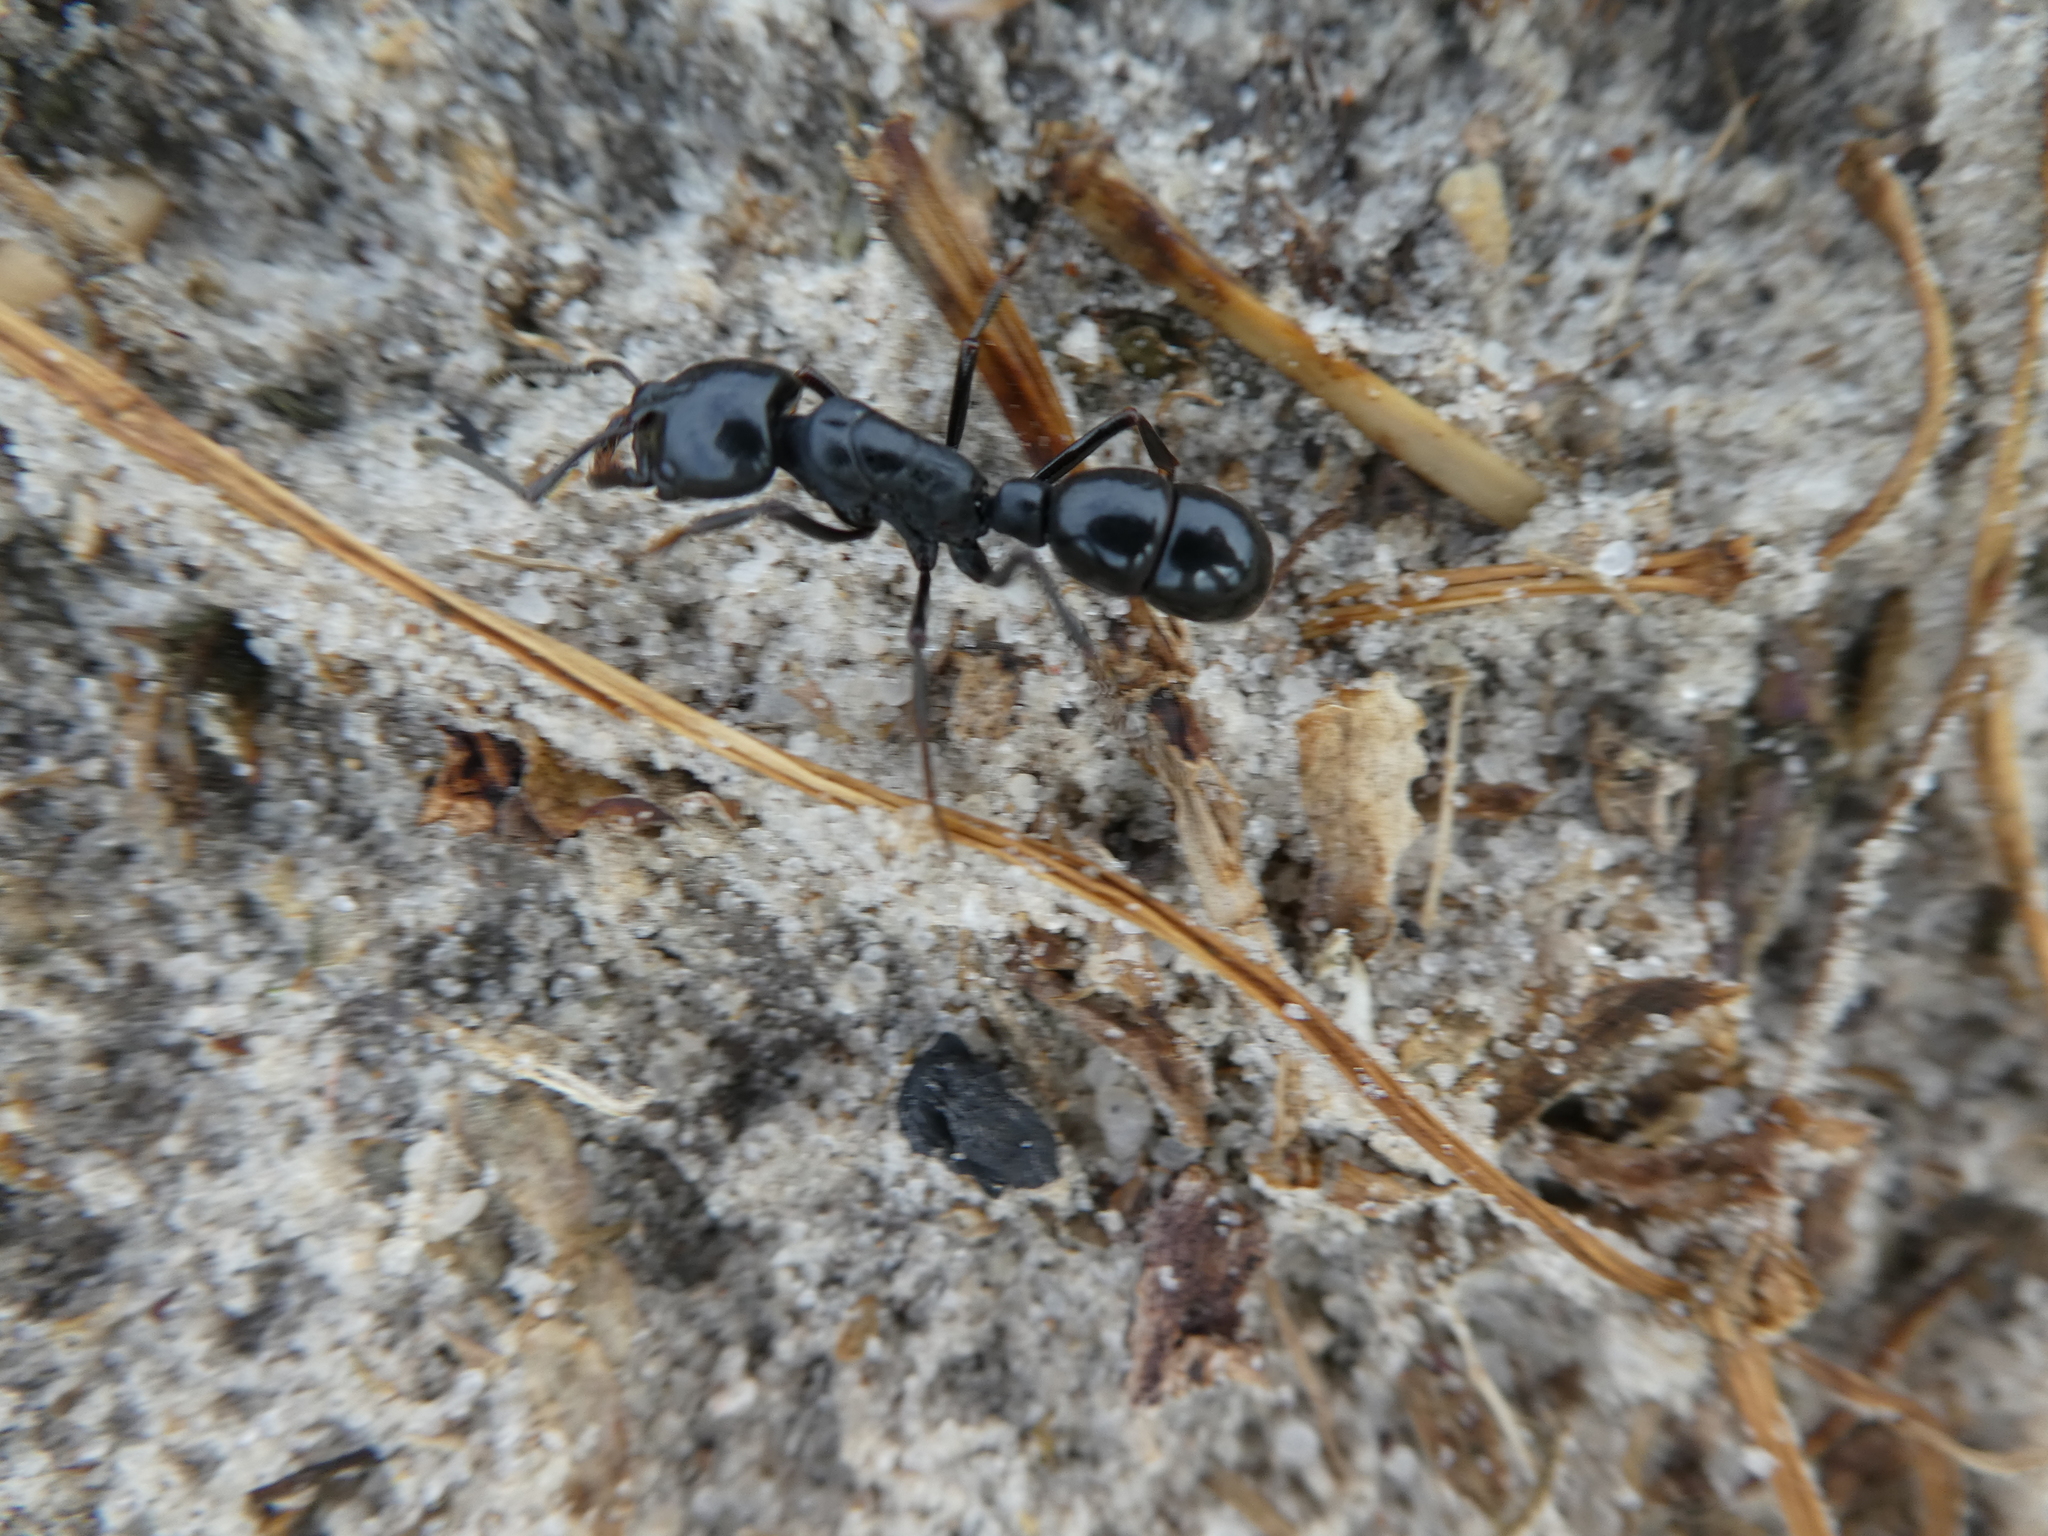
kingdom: Animalia
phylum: Arthropoda
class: Insecta
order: Hymenoptera
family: Formicidae
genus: Plectroctena
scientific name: Plectroctena mandibularis
